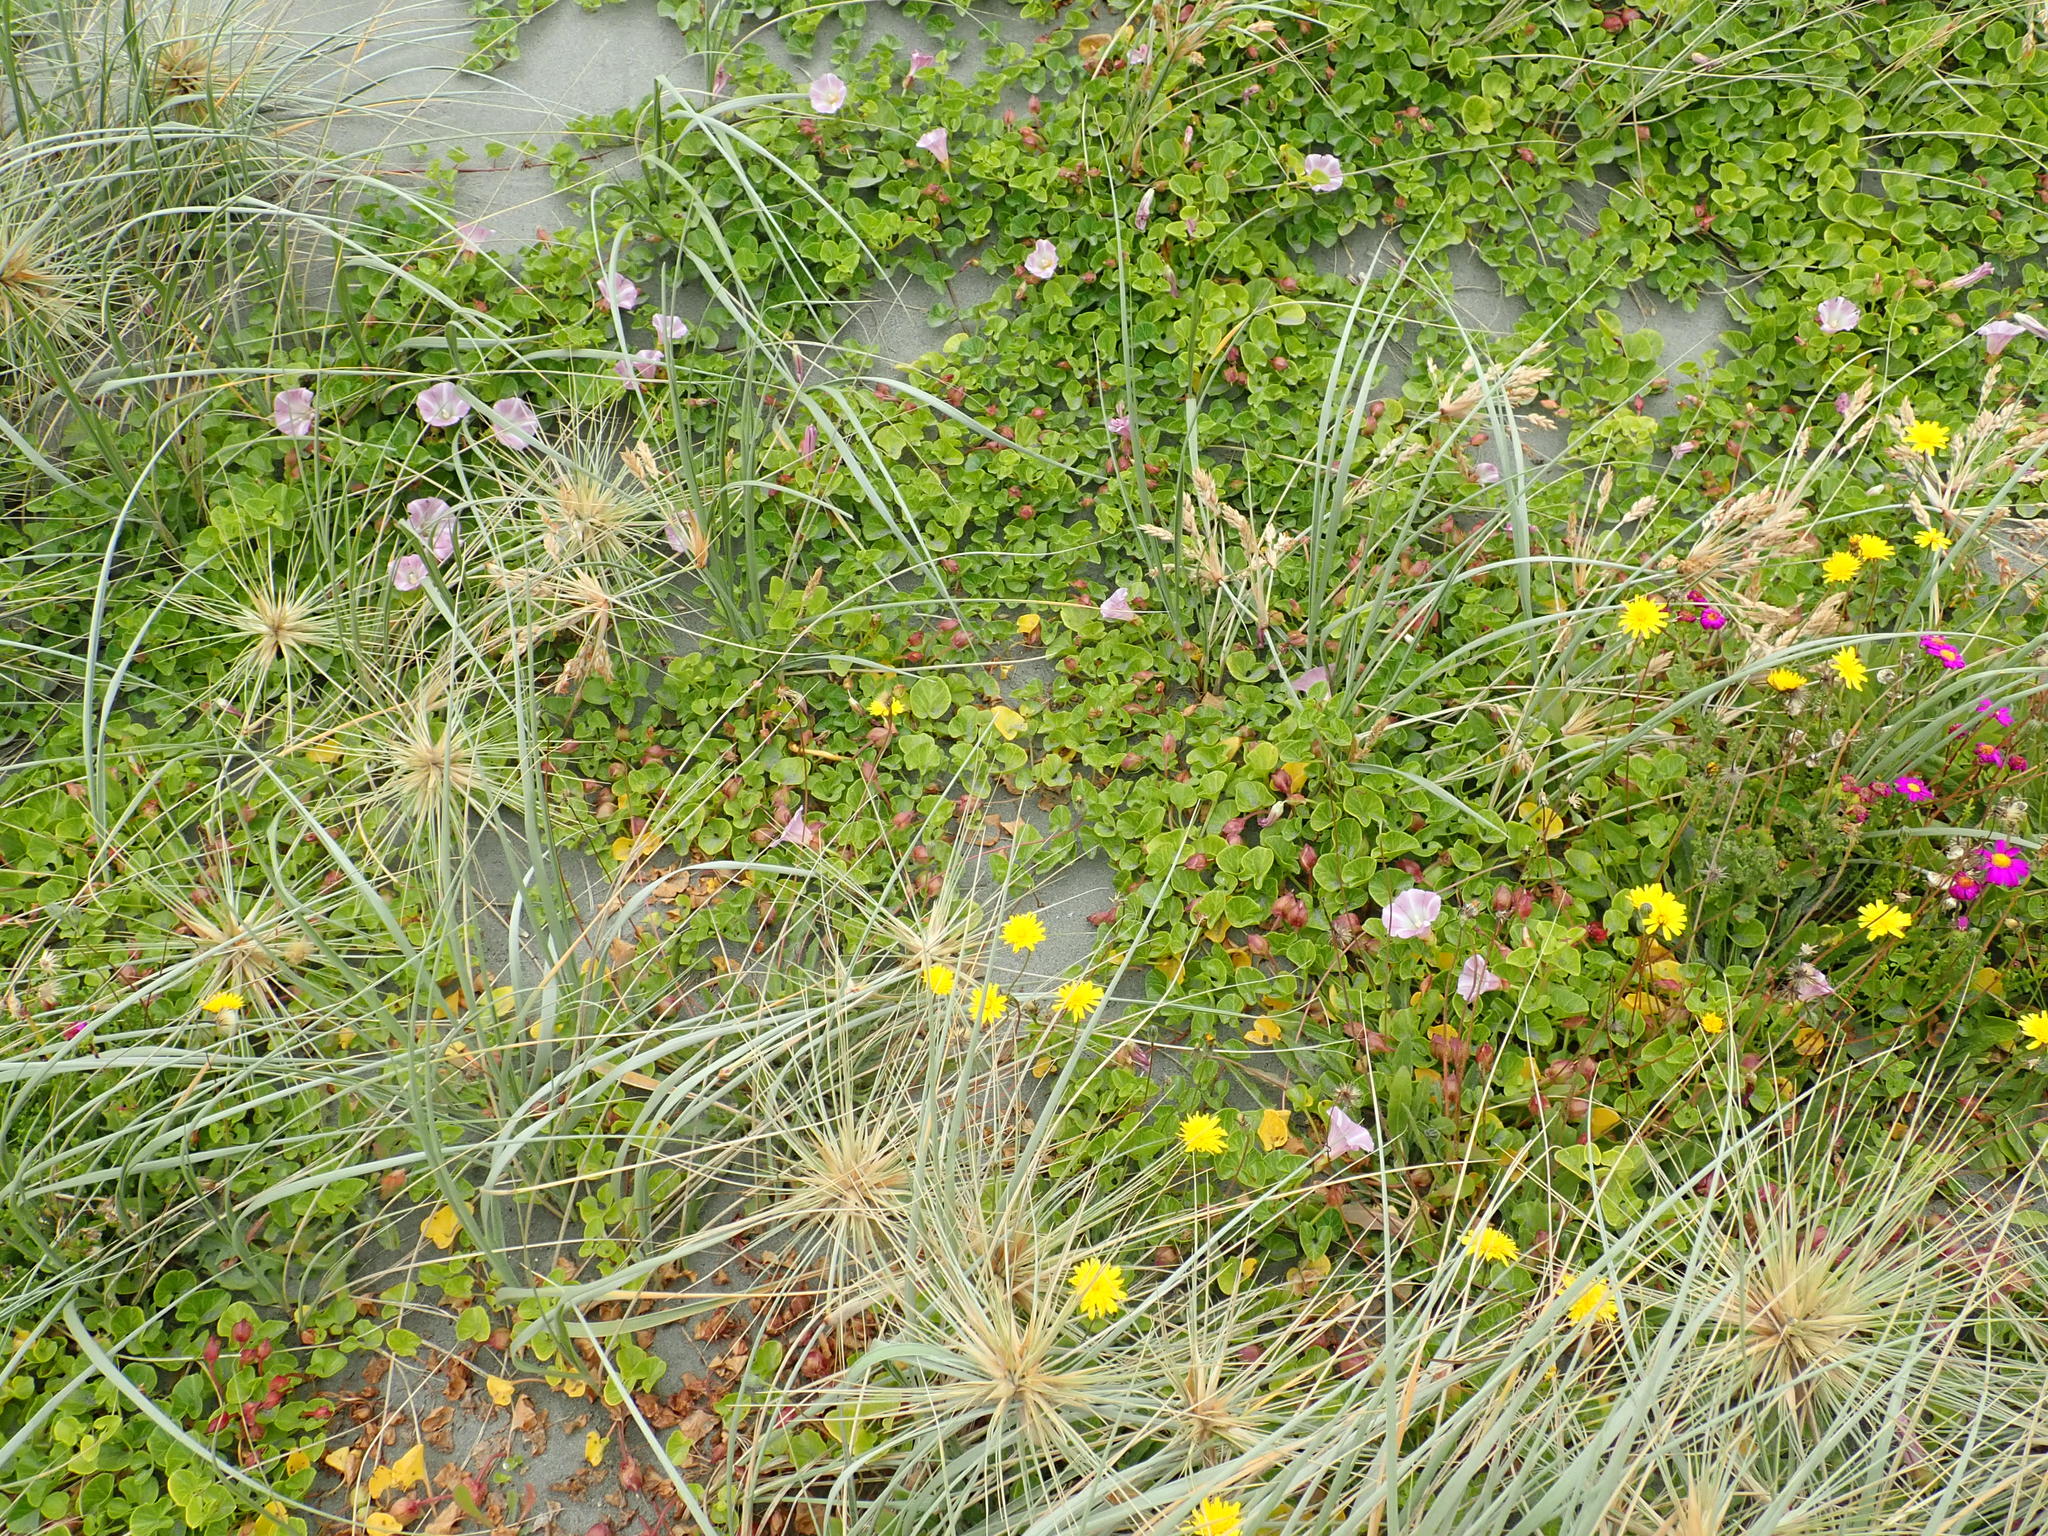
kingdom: Plantae
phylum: Tracheophyta
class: Magnoliopsida
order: Solanales
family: Convolvulaceae
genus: Calystegia
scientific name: Calystegia soldanella
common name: Sea bindweed
